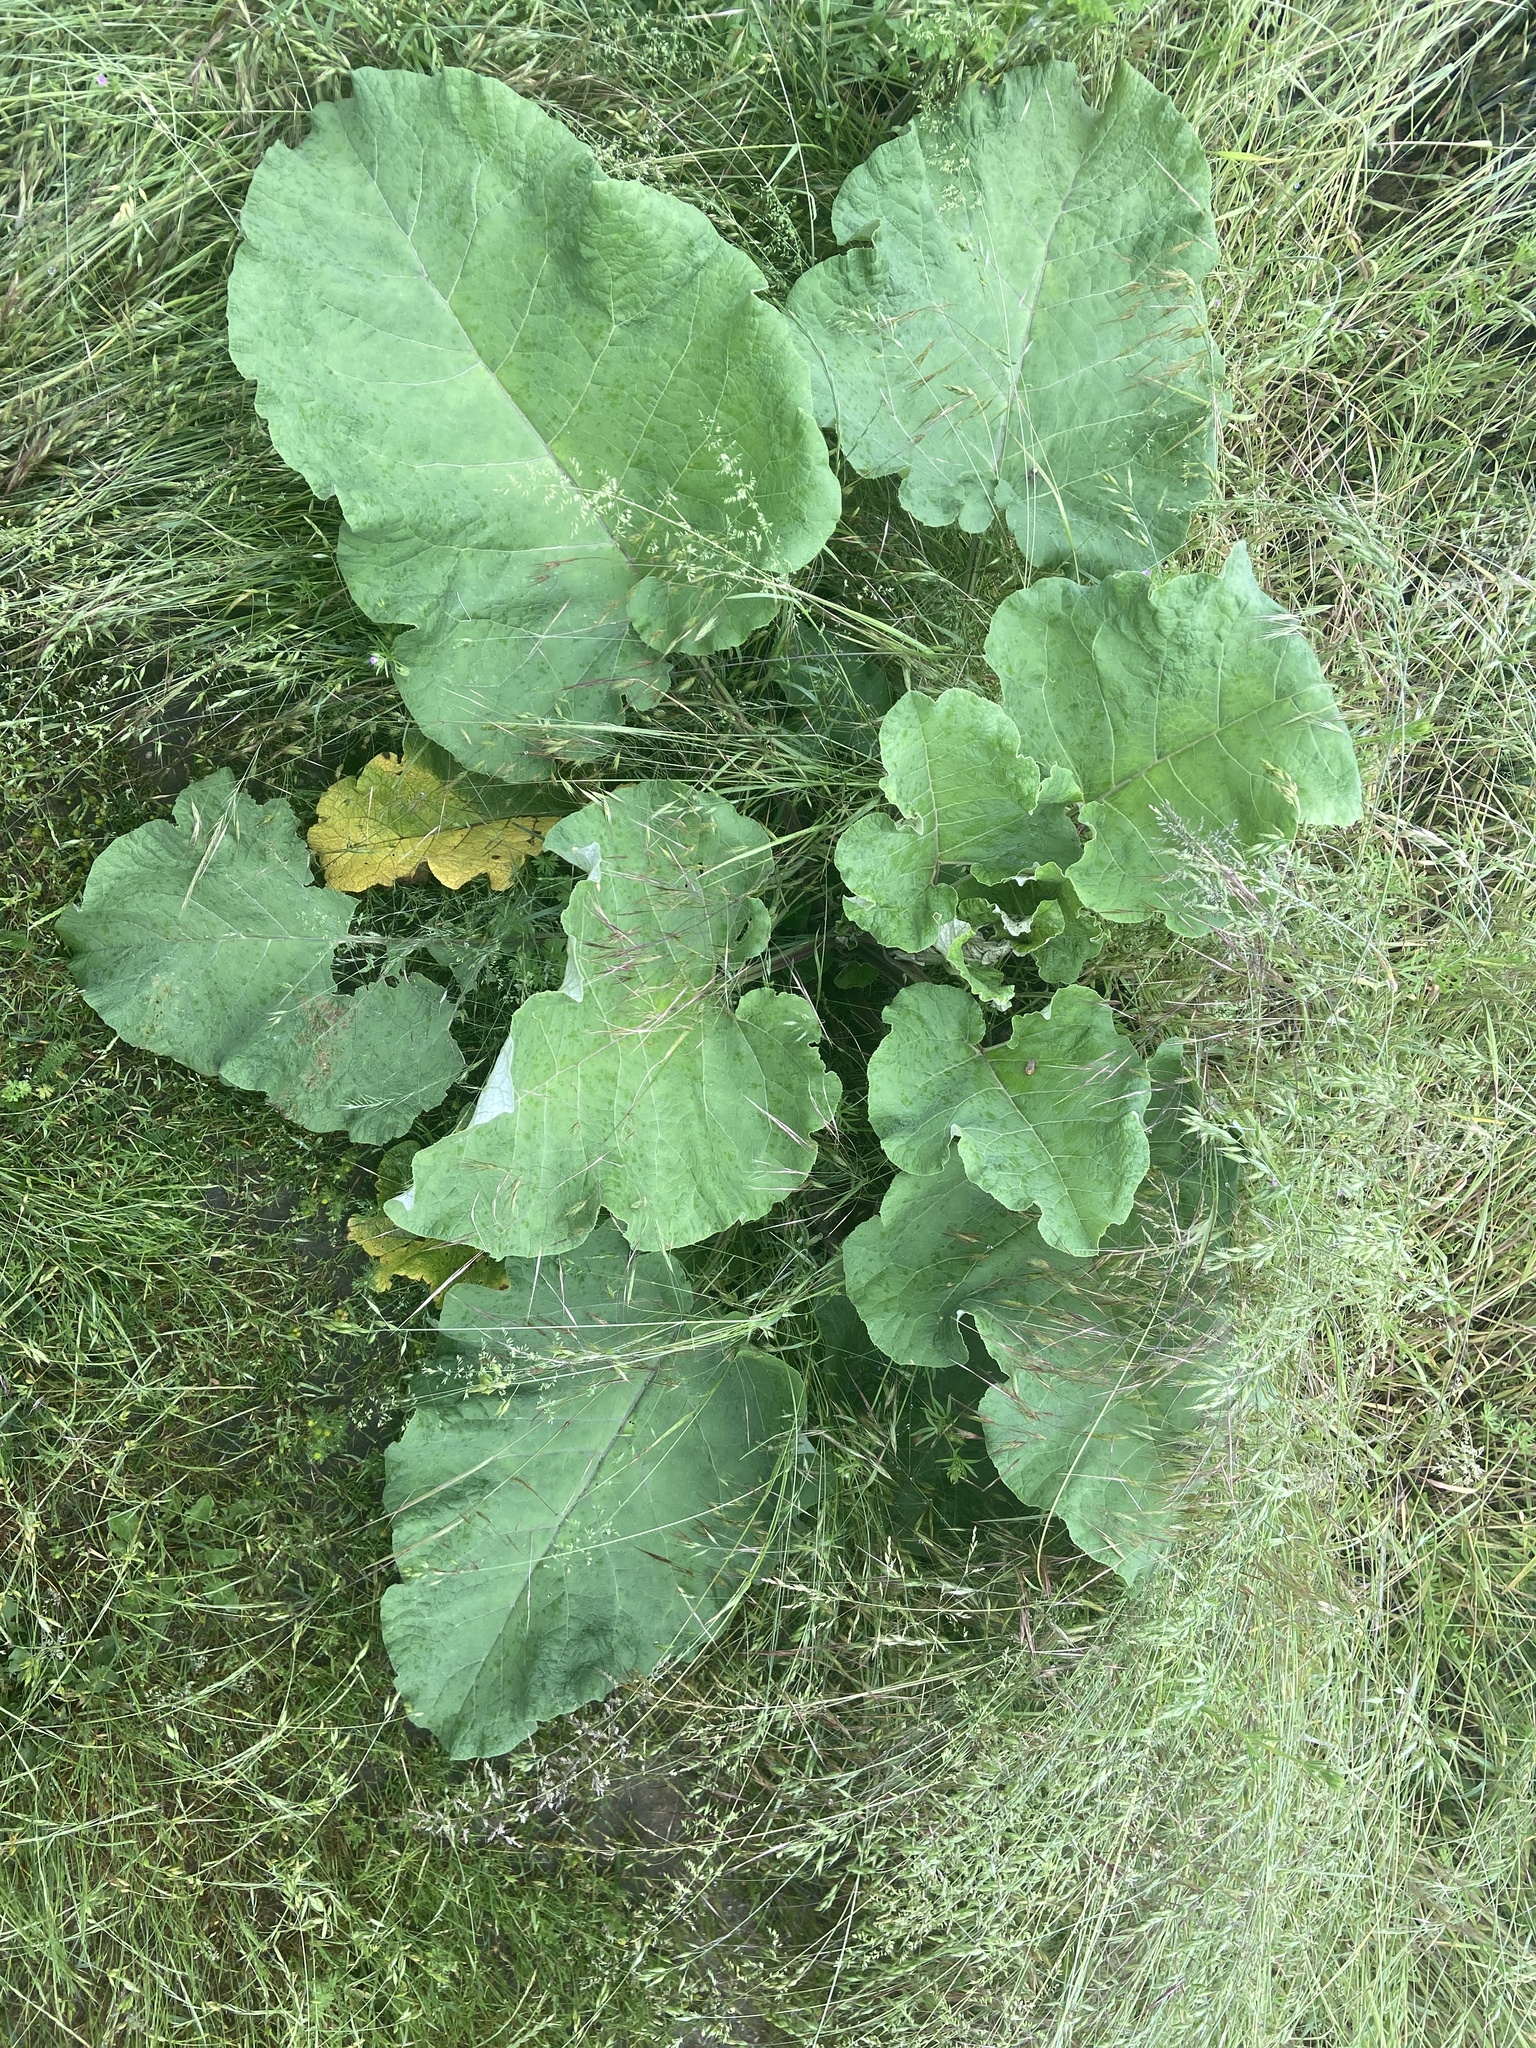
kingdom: Plantae
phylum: Tracheophyta
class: Magnoliopsida
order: Asterales
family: Asteraceae
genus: Arctium
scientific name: Arctium lappa
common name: Greater burdock
